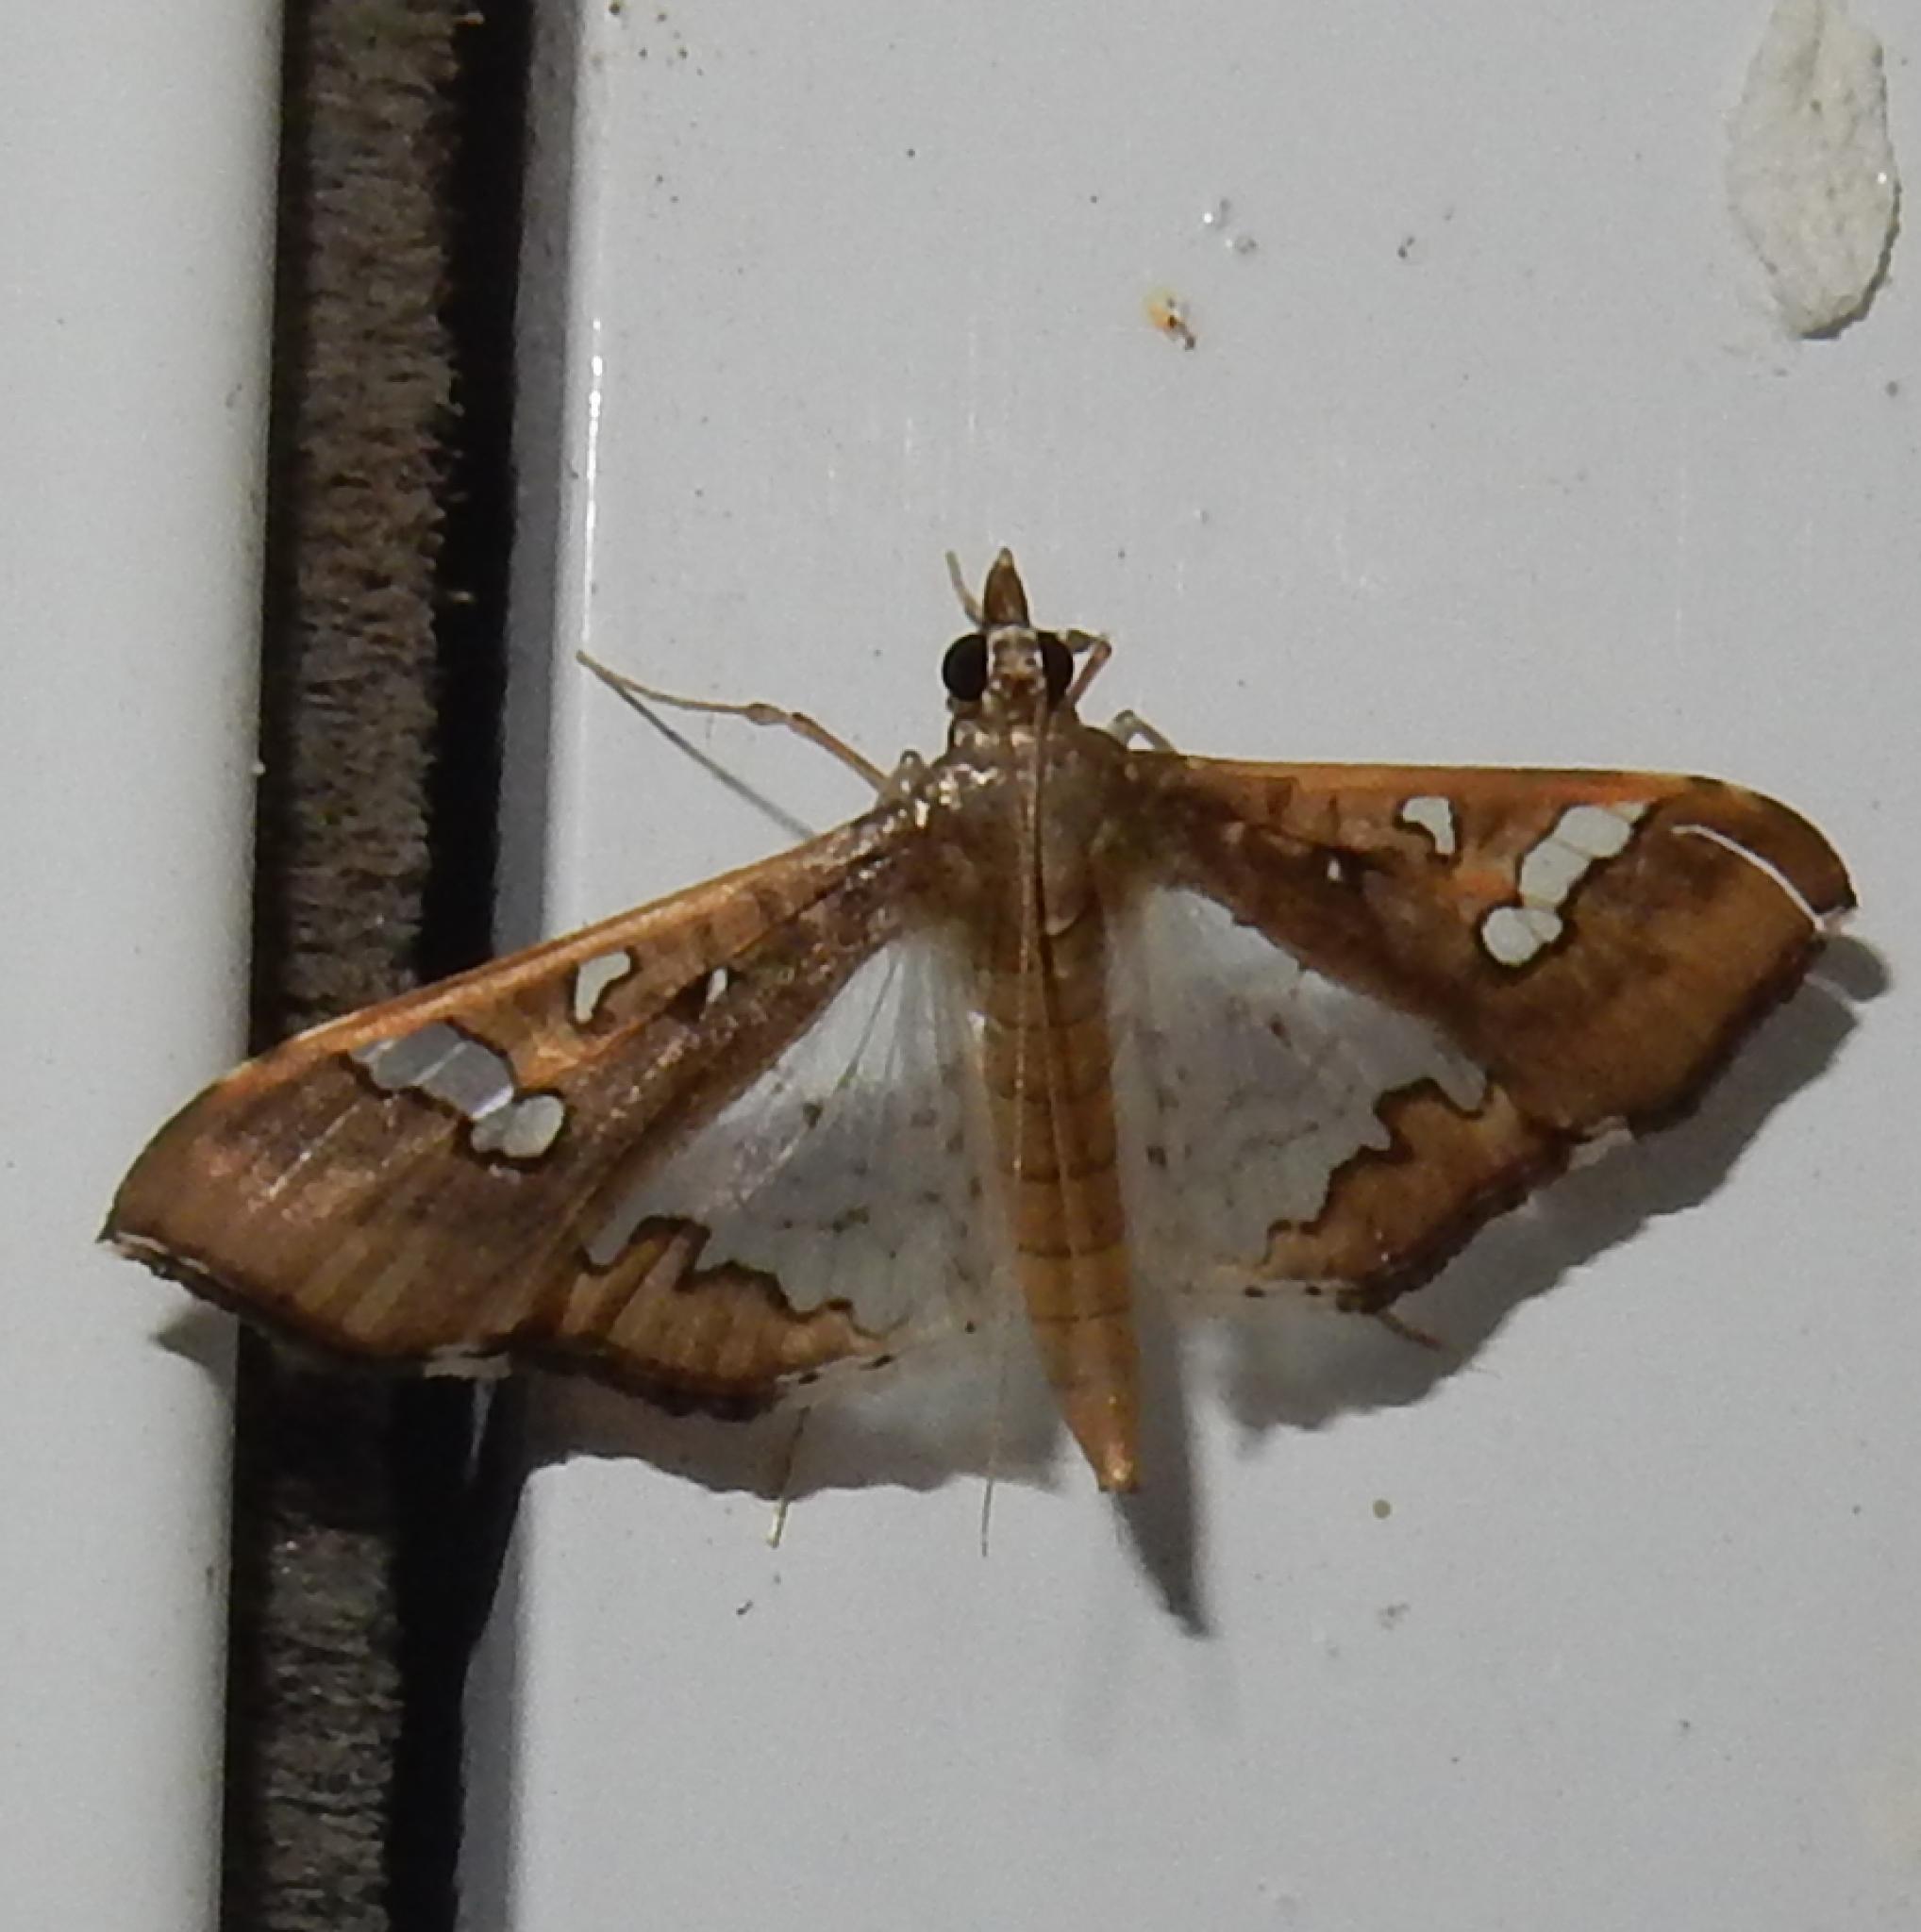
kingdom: Animalia
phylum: Arthropoda
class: Insecta
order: Lepidoptera
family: Crambidae
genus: Maruca
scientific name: Maruca vitrata
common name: Maruca pod borer
